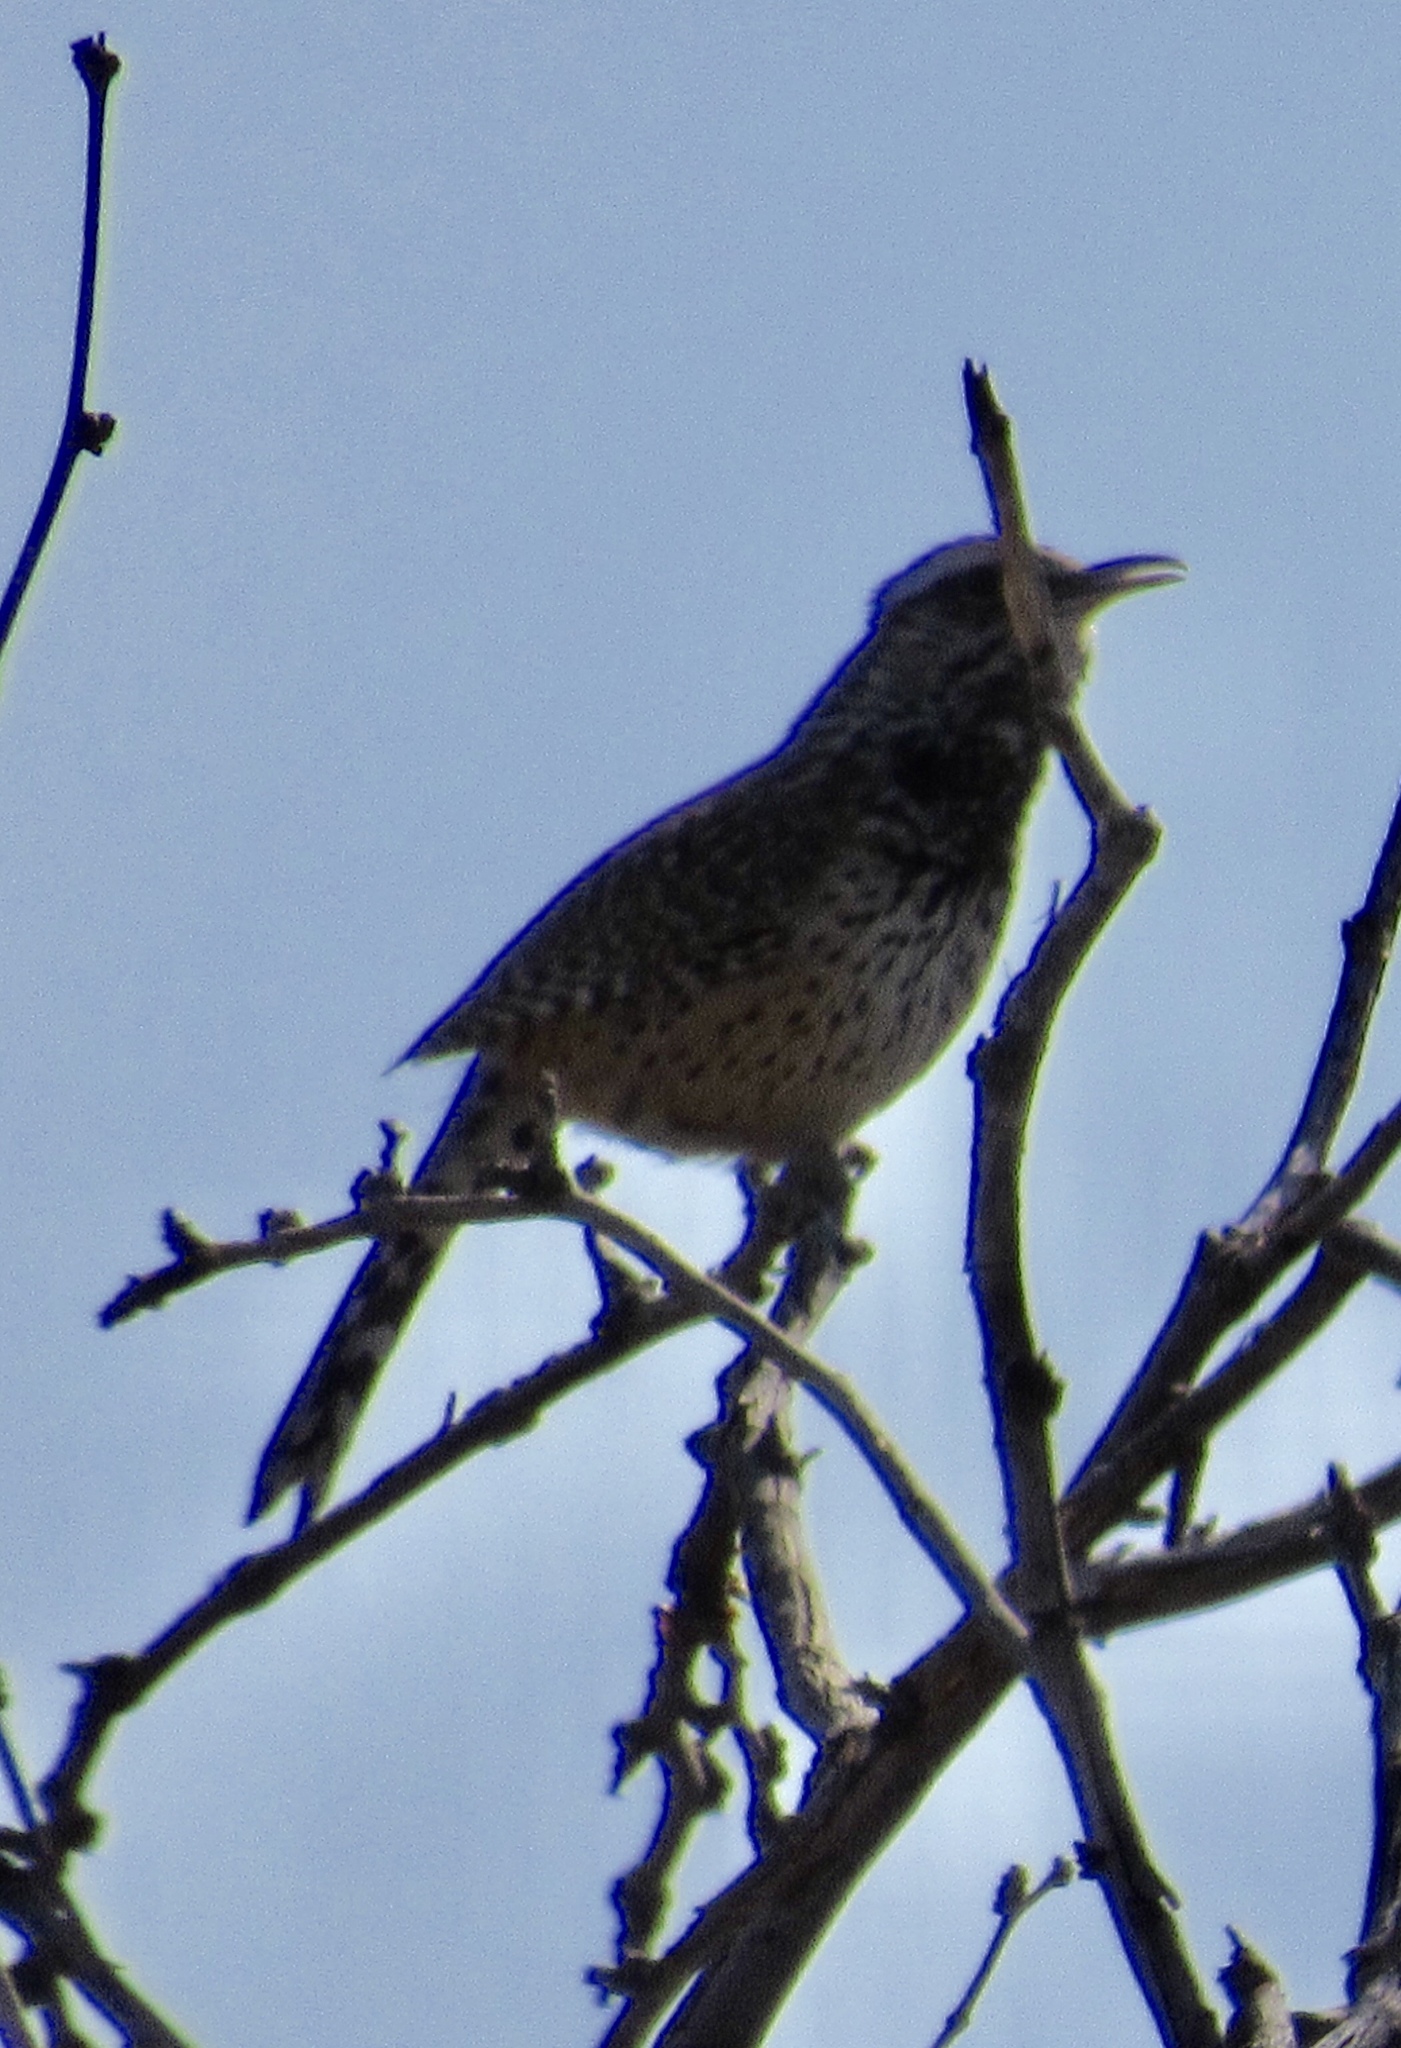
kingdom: Animalia
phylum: Chordata
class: Aves
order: Passeriformes
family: Troglodytidae
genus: Campylorhynchus
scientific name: Campylorhynchus brunneicapillus
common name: Cactus wren
